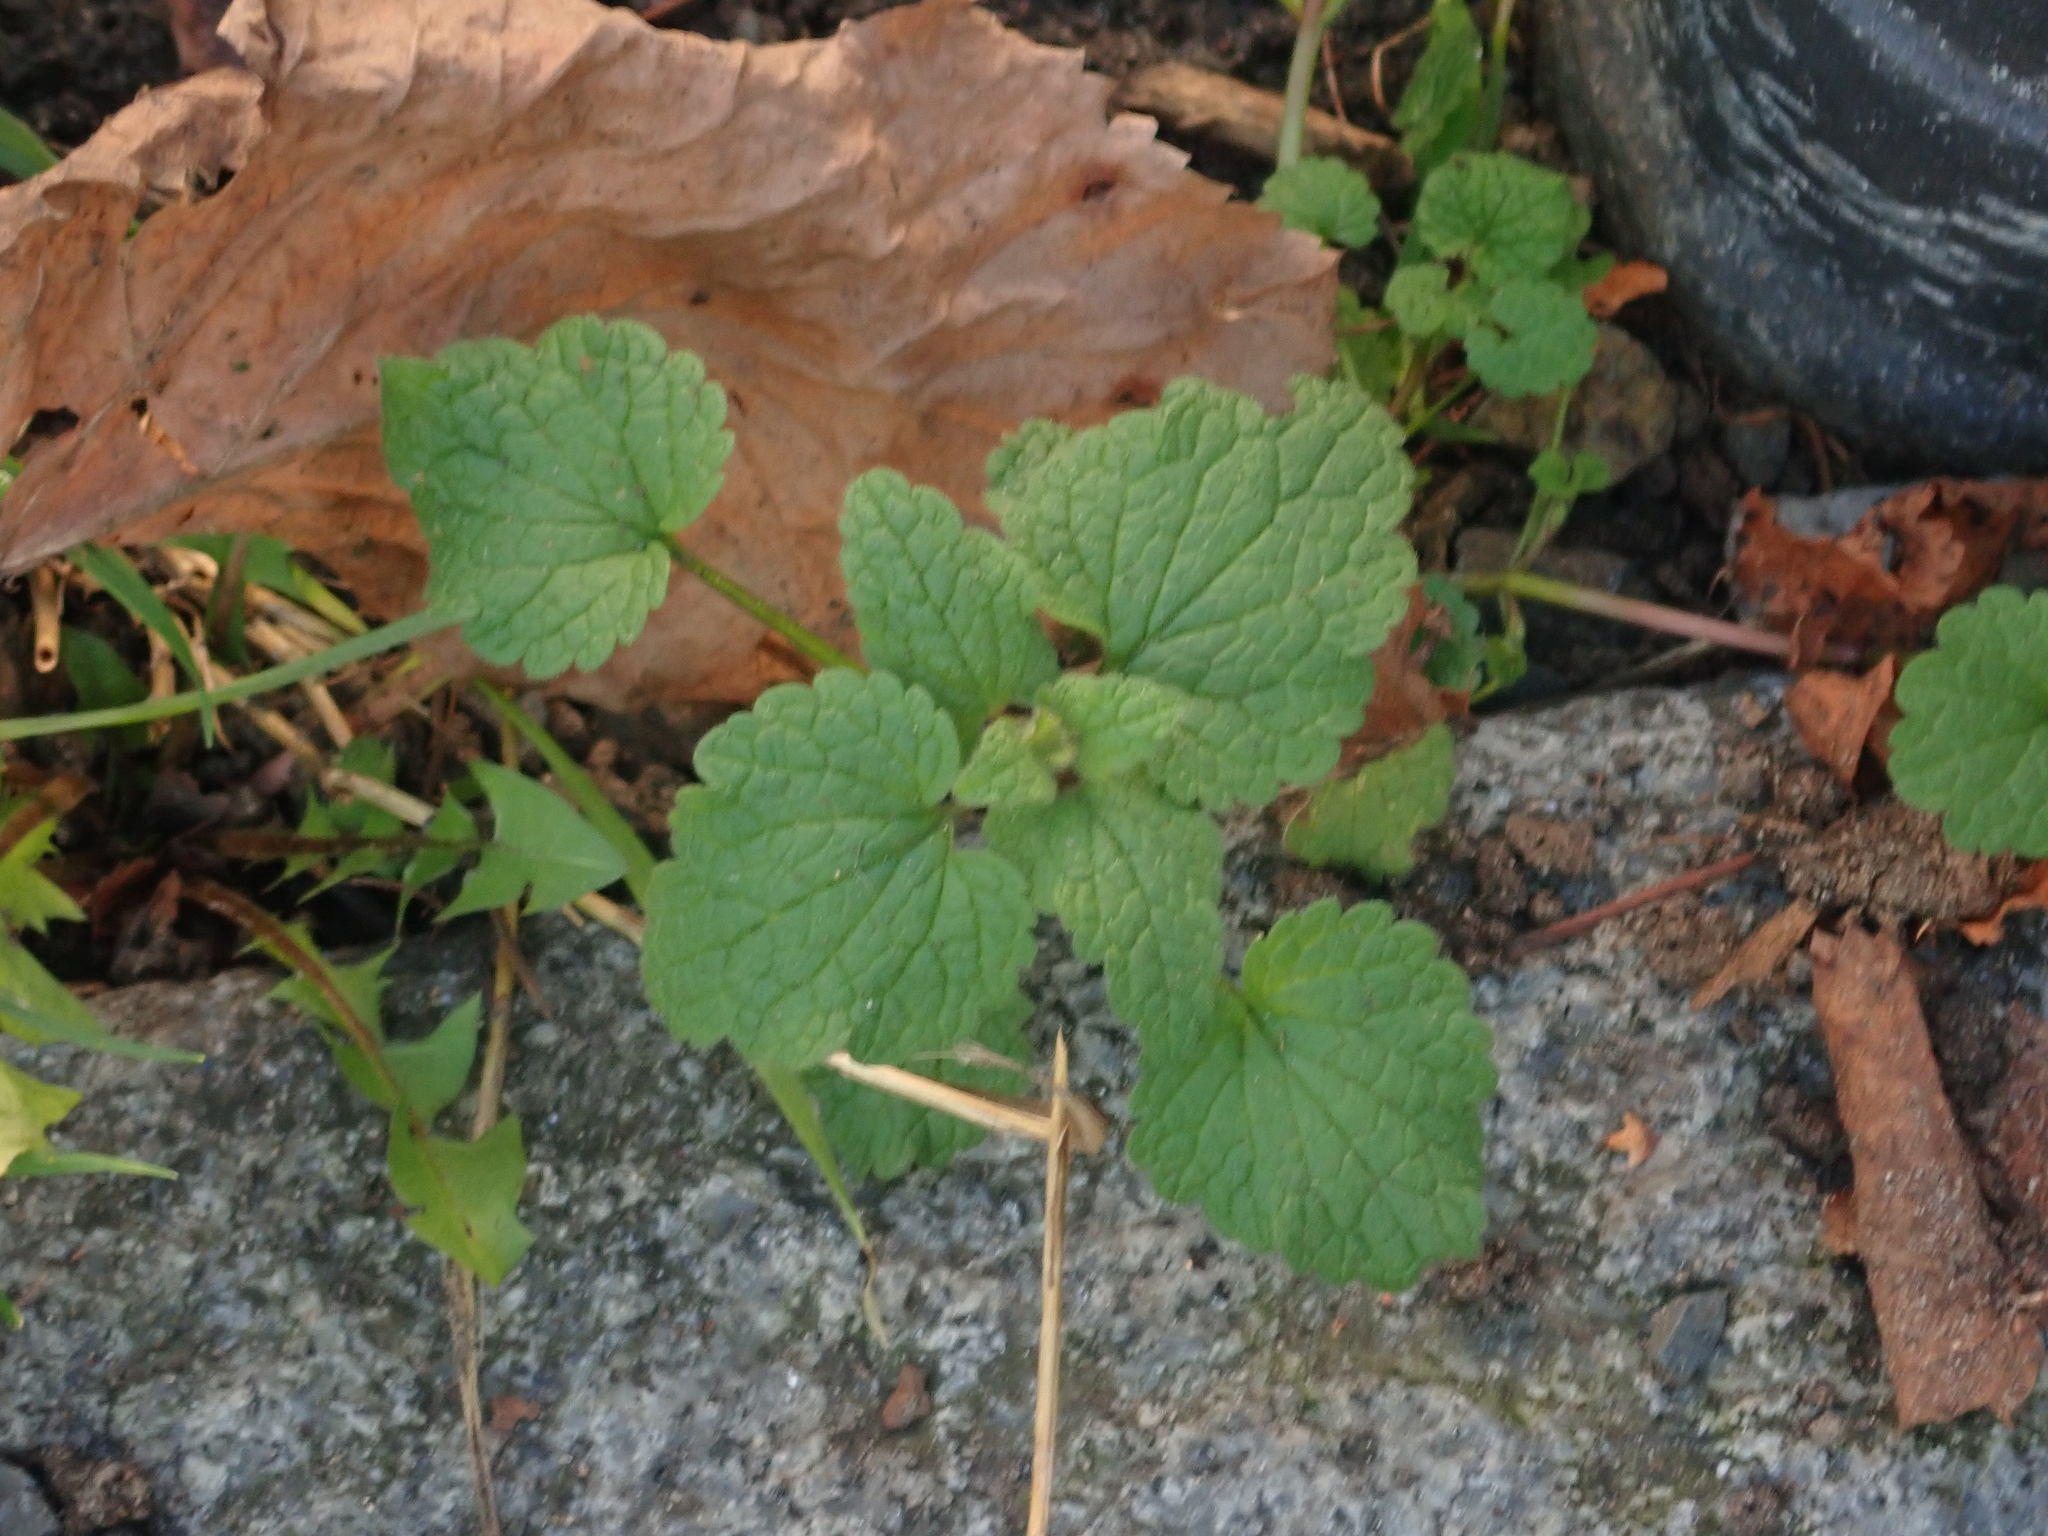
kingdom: Plantae
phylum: Tracheophyta
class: Magnoliopsida
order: Lamiales
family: Lamiaceae
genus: Lamium
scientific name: Lamium purpureum
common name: Red dead-nettle
